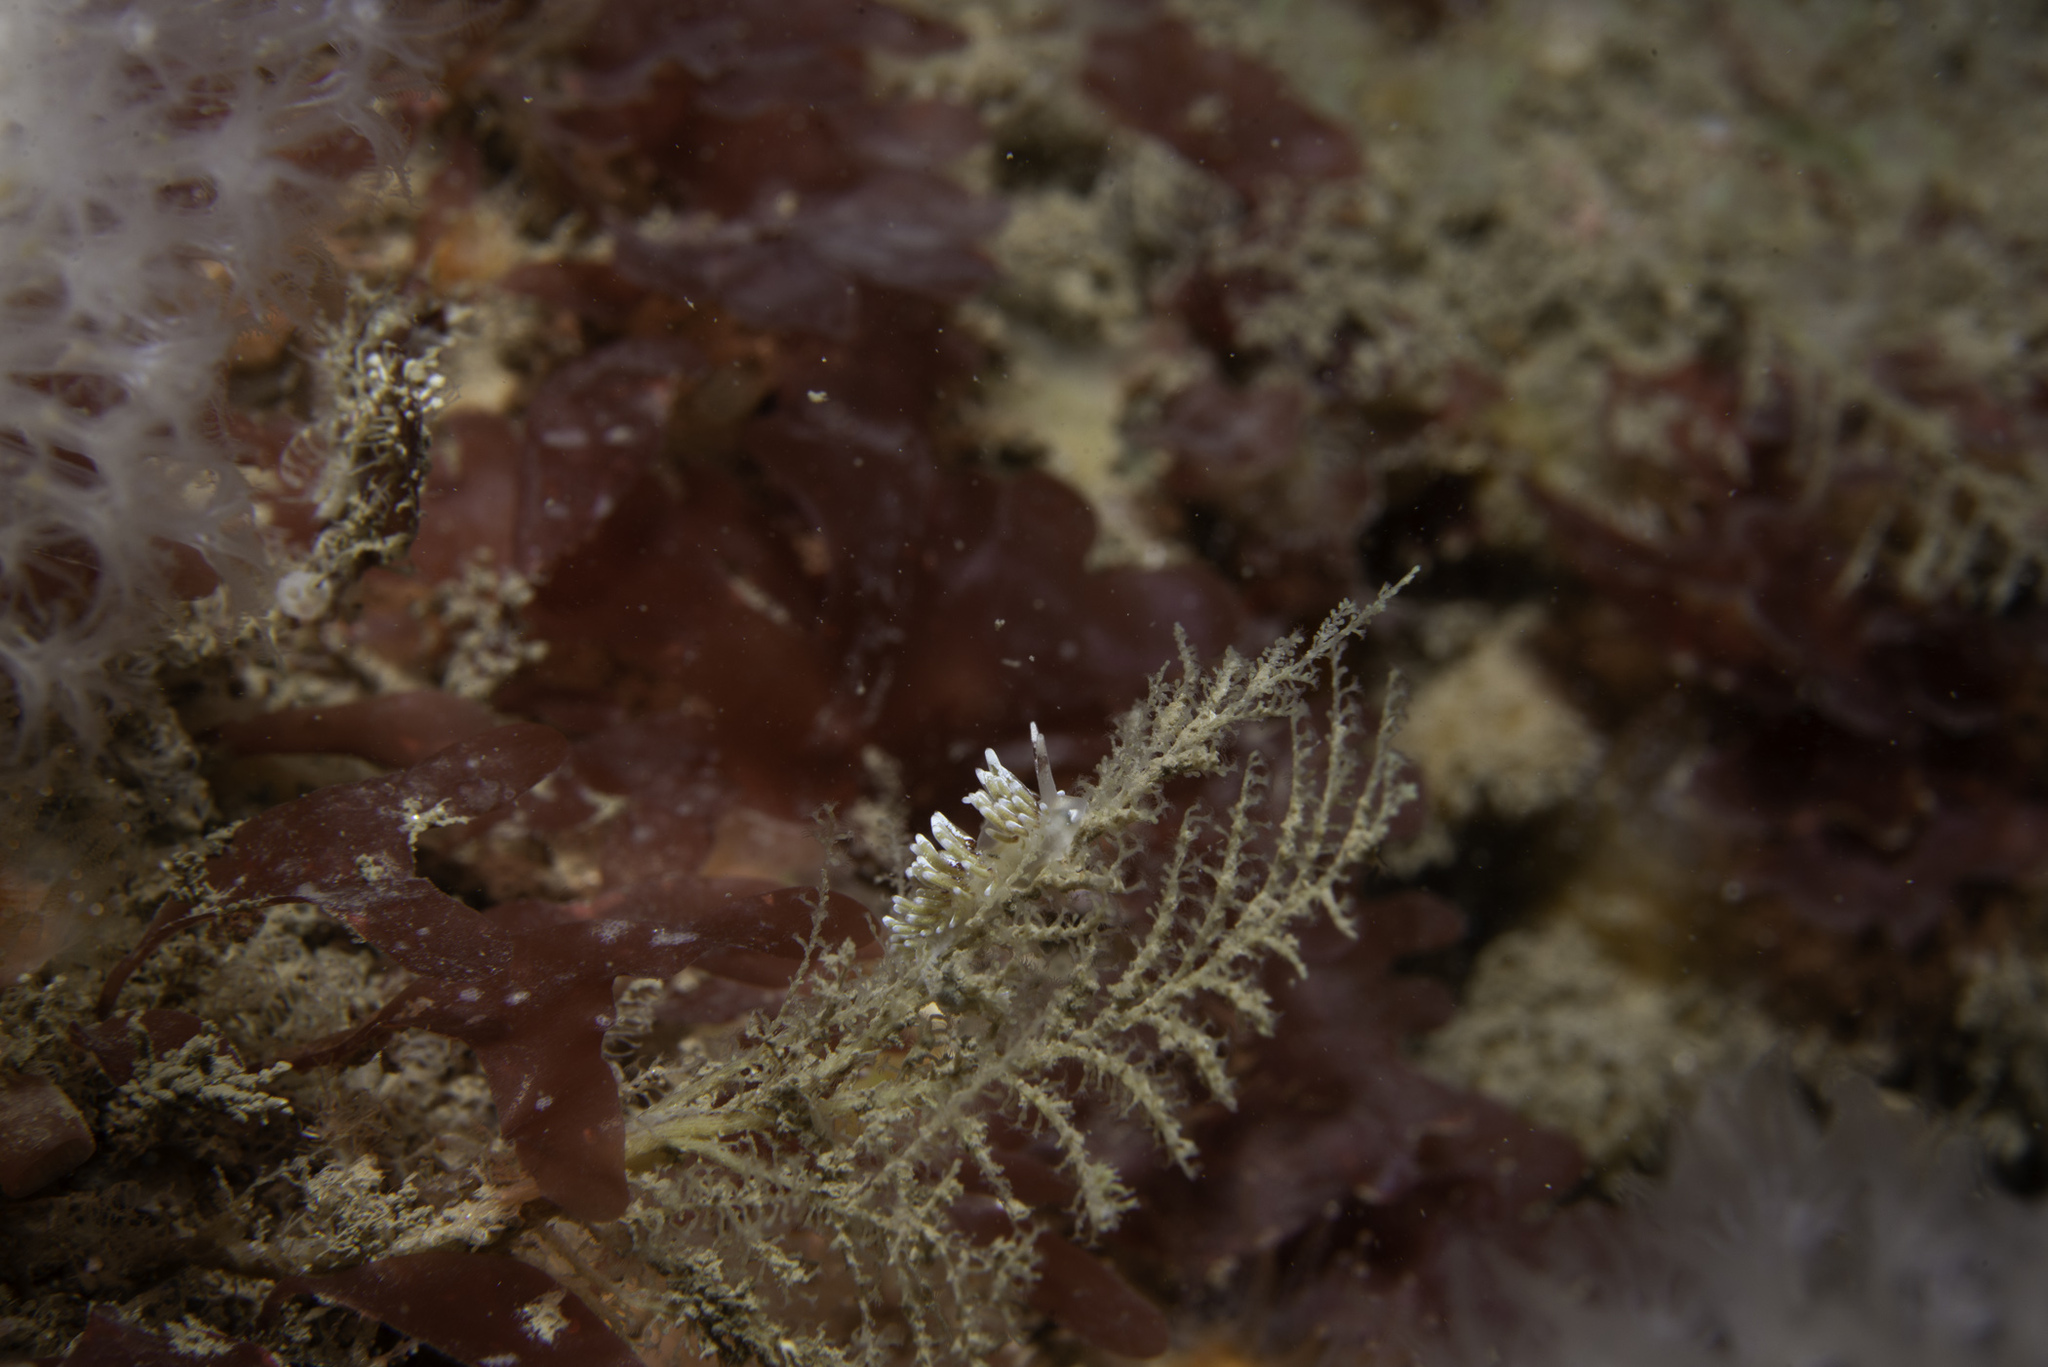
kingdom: Animalia
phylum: Mollusca
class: Gastropoda
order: Nudibranchia
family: Trinchesiidae
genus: Rubramoena
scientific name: Rubramoena rubescens
